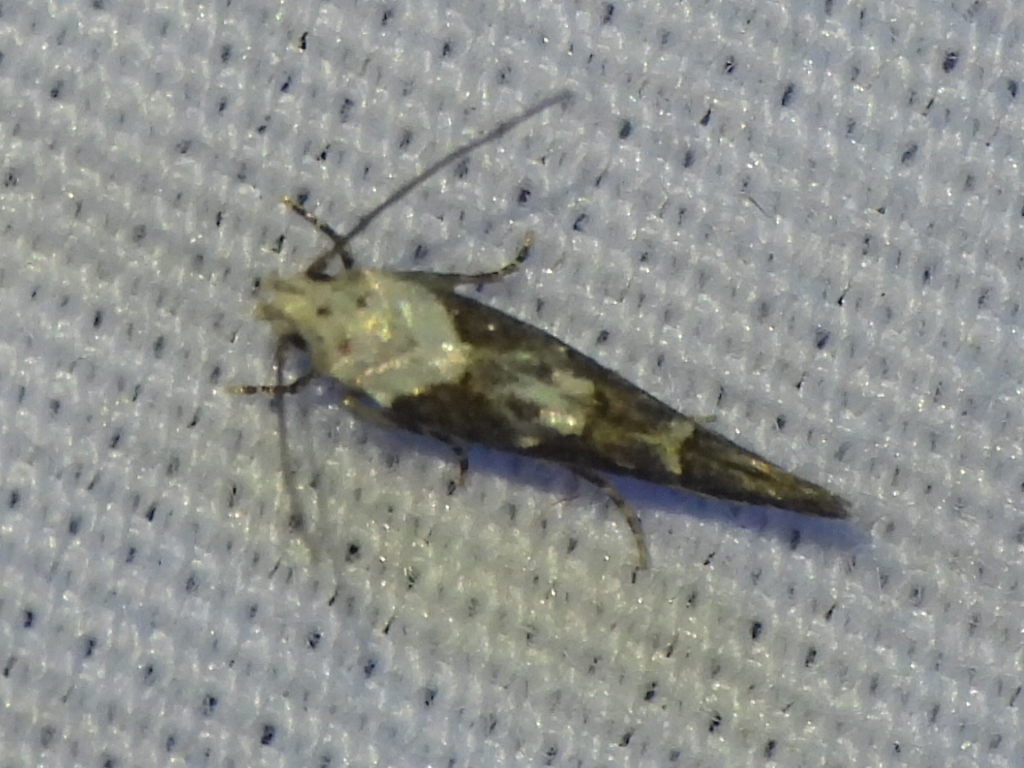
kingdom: Animalia
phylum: Arthropoda
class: Insecta
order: Lepidoptera
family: Momphidae
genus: Mompha
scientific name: Mompha albocapitella
